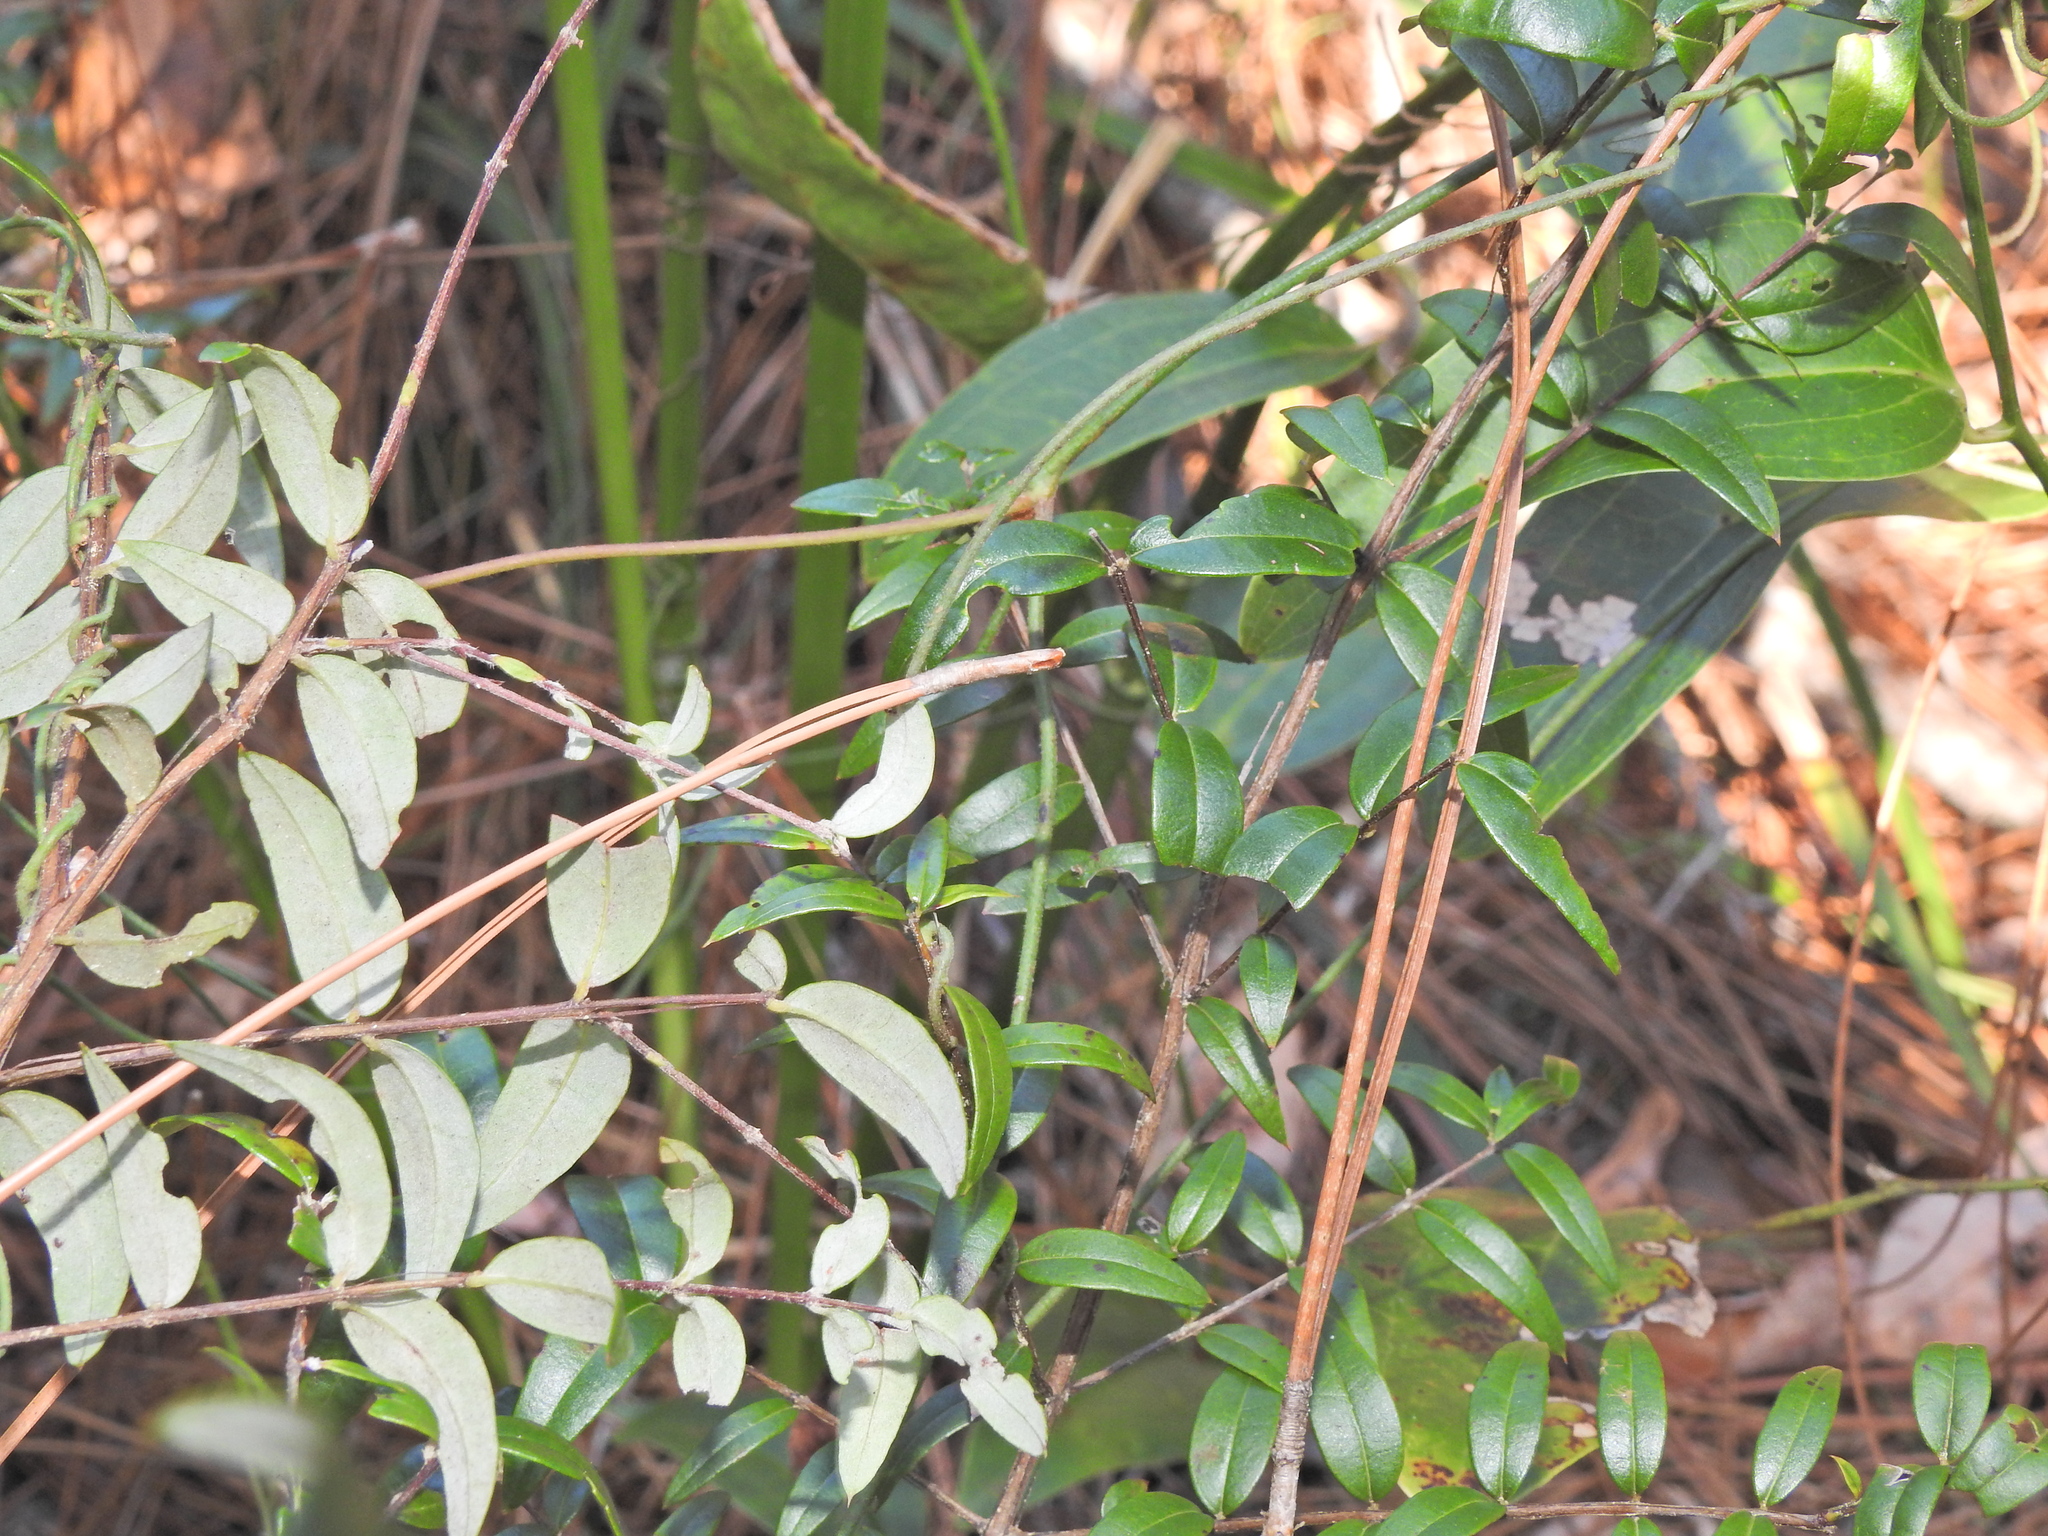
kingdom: Plantae
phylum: Tracheophyta
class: Magnoliopsida
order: Myrtales
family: Myrtaceae
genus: Austromyrtus
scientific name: Austromyrtus dulcis
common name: Migden-berry
